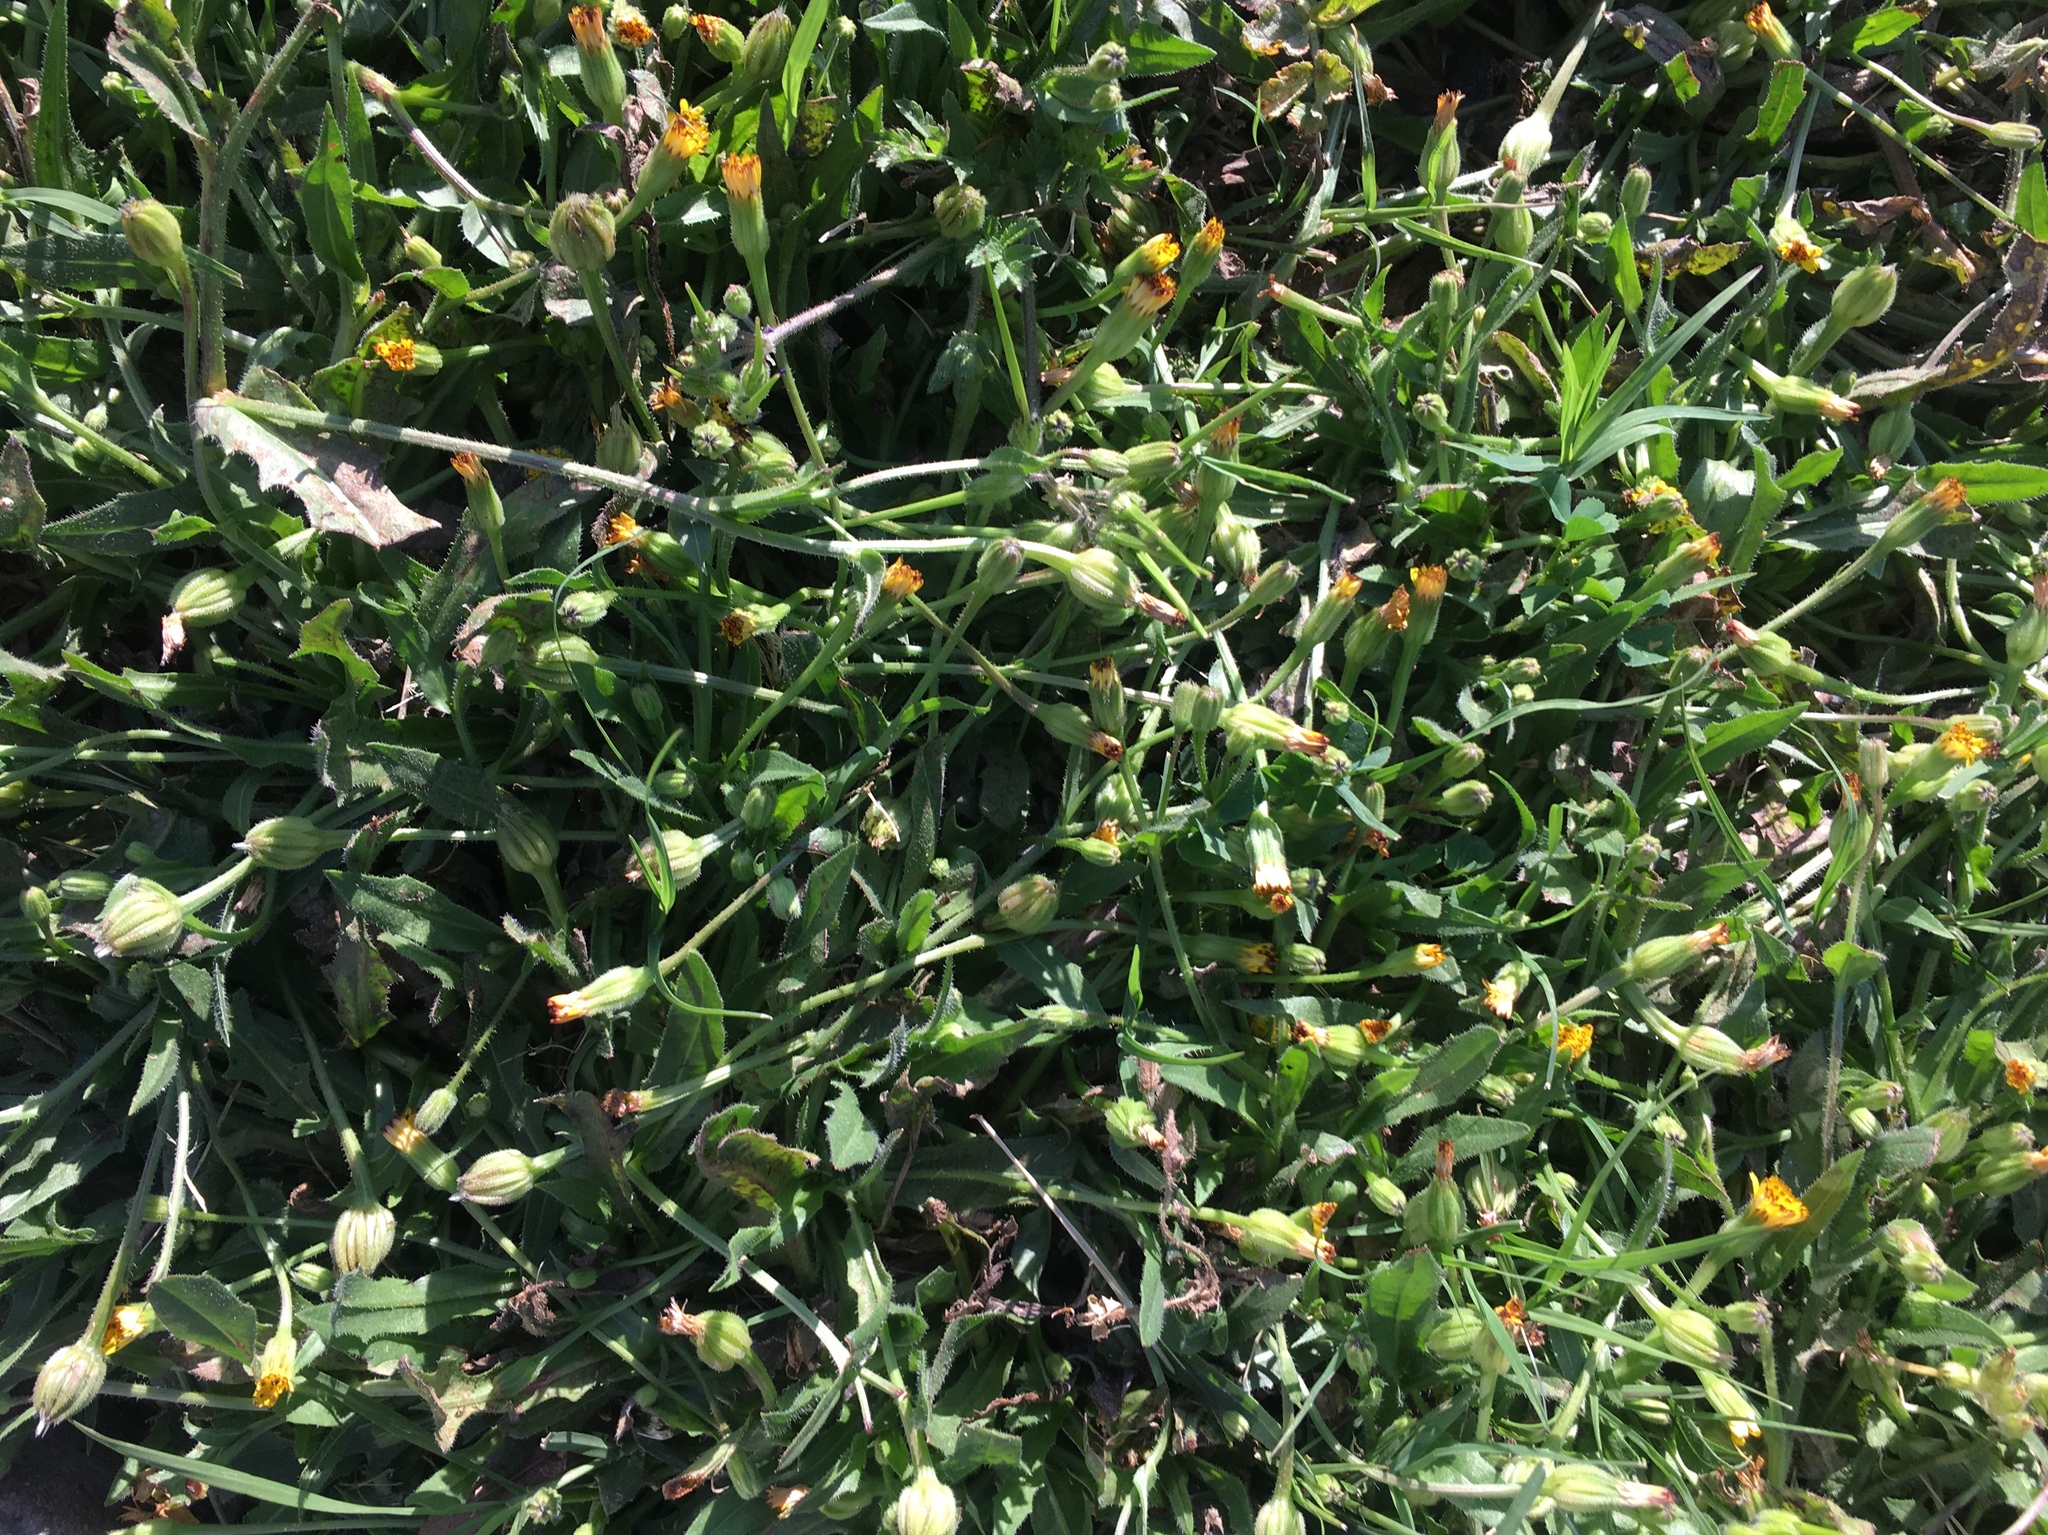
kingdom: Plantae
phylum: Tracheophyta
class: Magnoliopsida
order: Asterales
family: Asteraceae
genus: Hedypnois
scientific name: Hedypnois rhagadioloides
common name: Cretan weed
